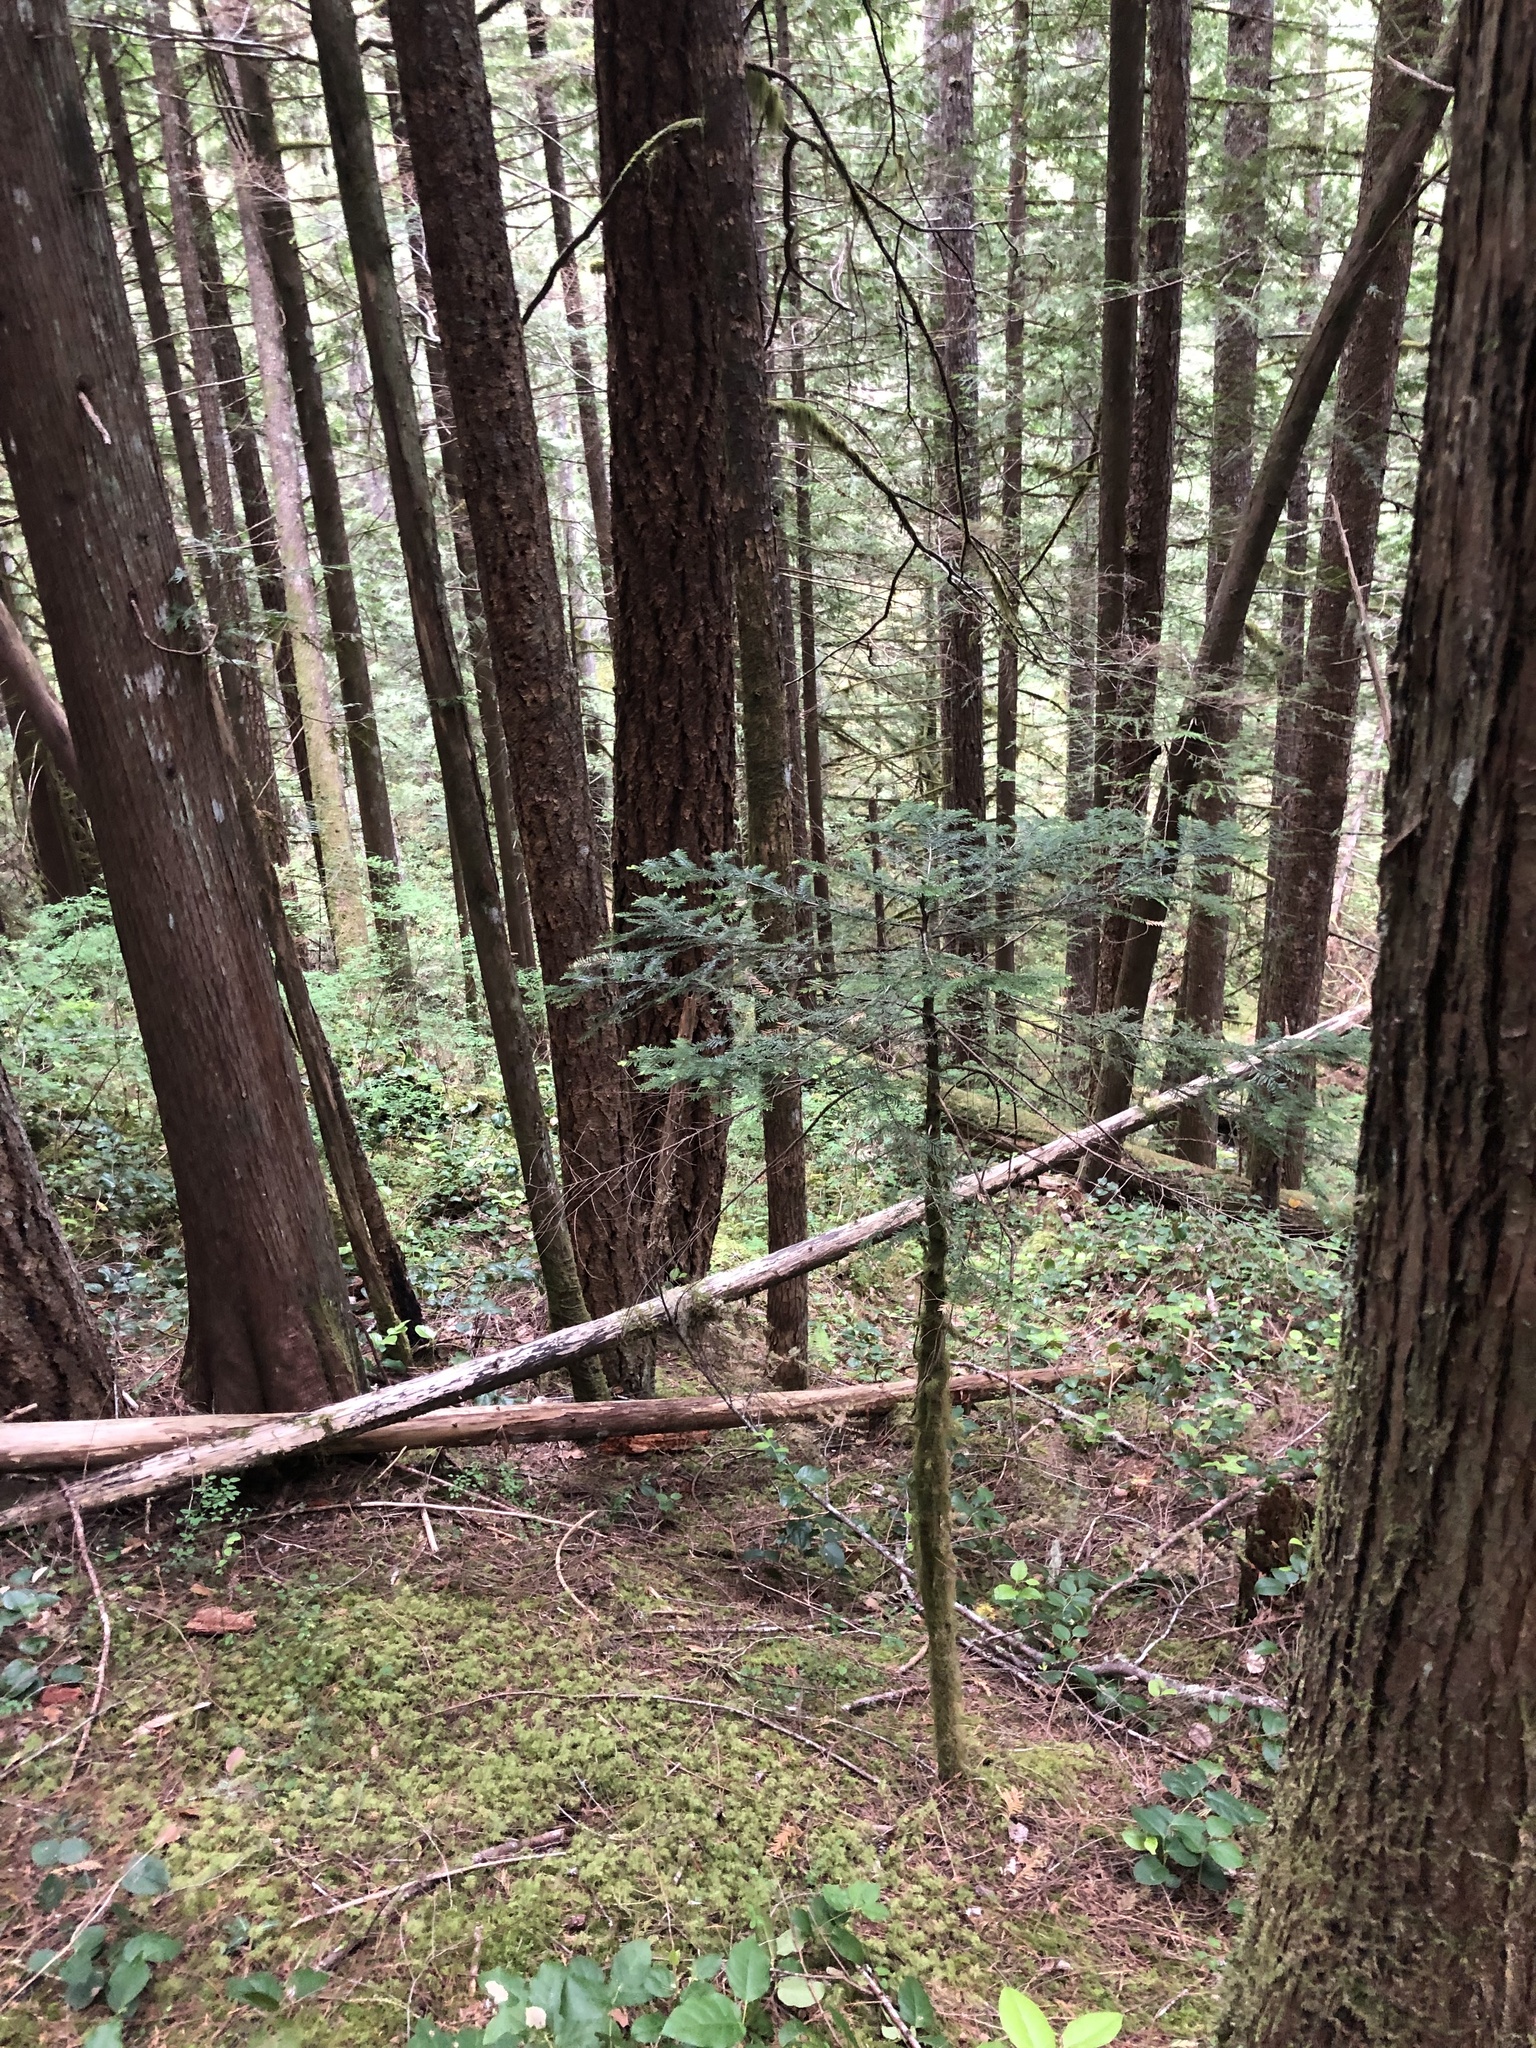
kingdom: Plantae
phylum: Tracheophyta
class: Pinopsida
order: Pinales
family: Pinaceae
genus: Abies
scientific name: Abies amabilis
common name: Pacific silver fir
